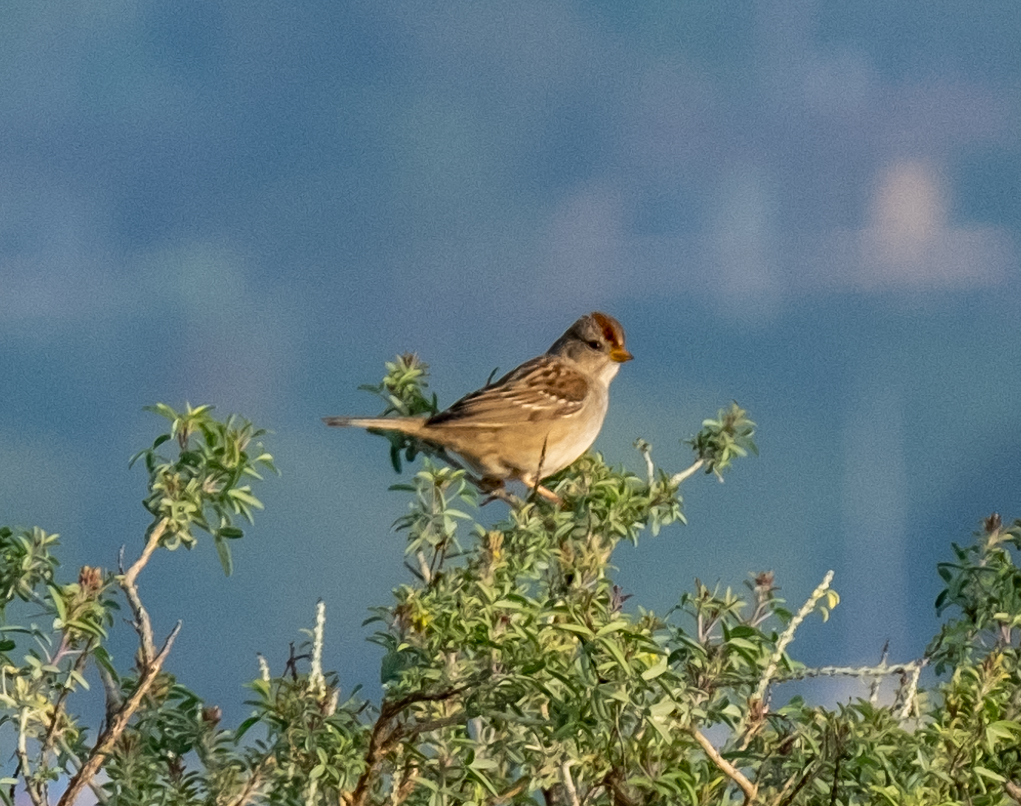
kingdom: Animalia
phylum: Chordata
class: Aves
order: Passeriformes
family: Passerellidae
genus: Zonotrichia
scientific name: Zonotrichia leucophrys
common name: White-crowned sparrow
